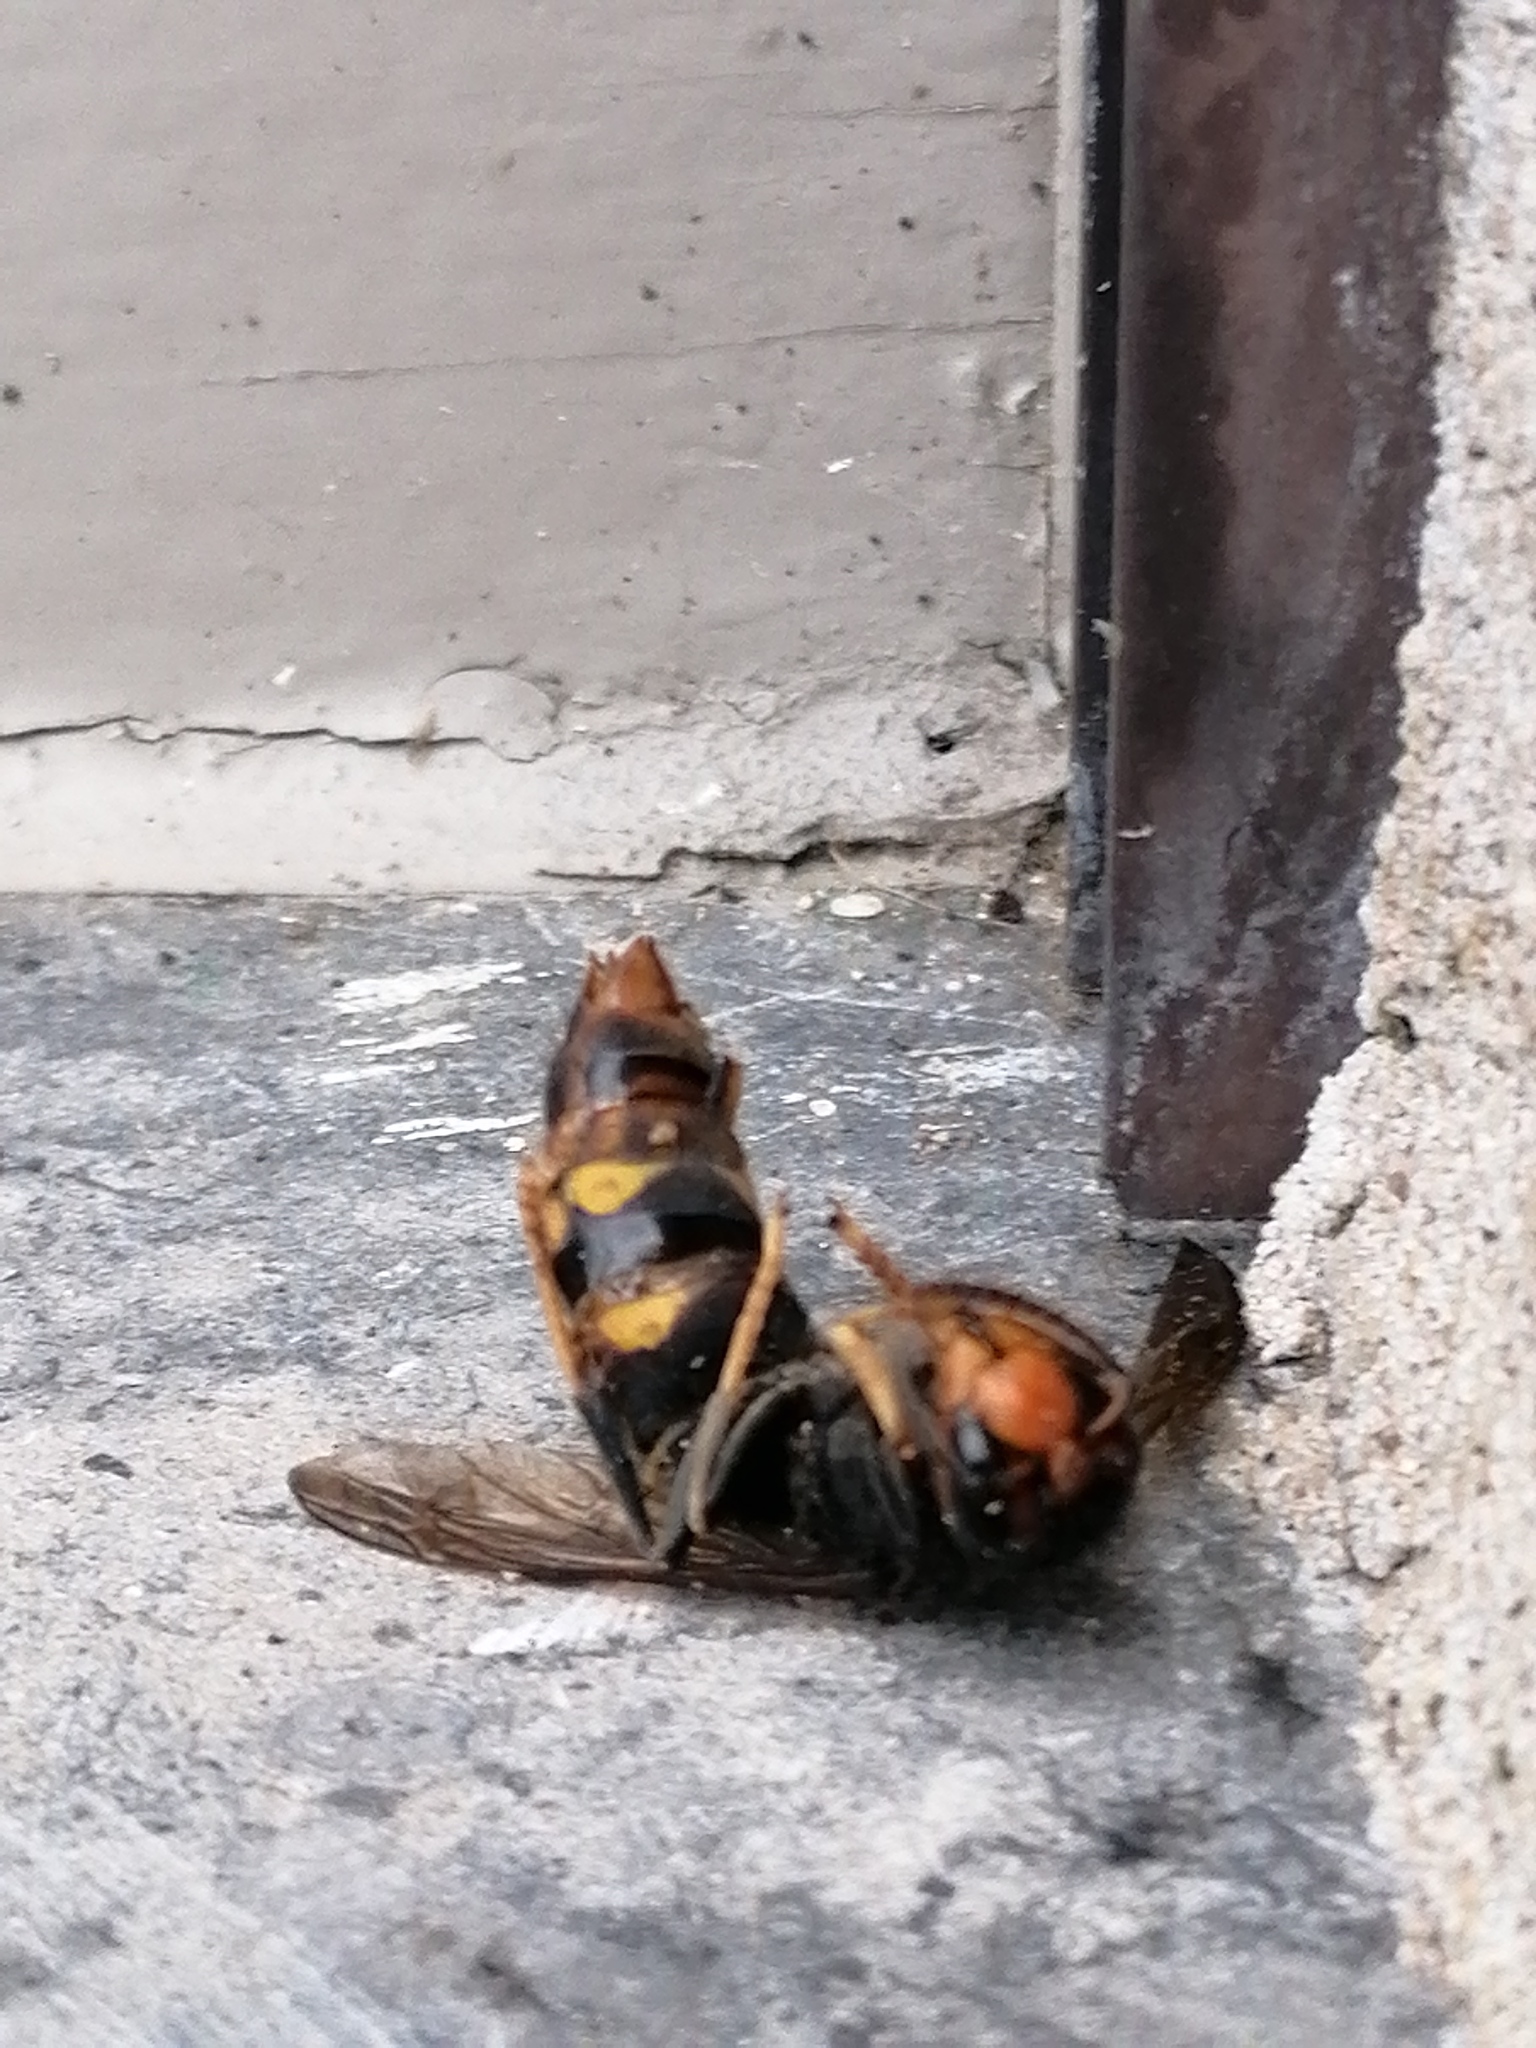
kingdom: Animalia
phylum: Arthropoda
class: Insecta
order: Hymenoptera
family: Vespidae
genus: Vespa
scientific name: Vespa velutina
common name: Asian hornet
